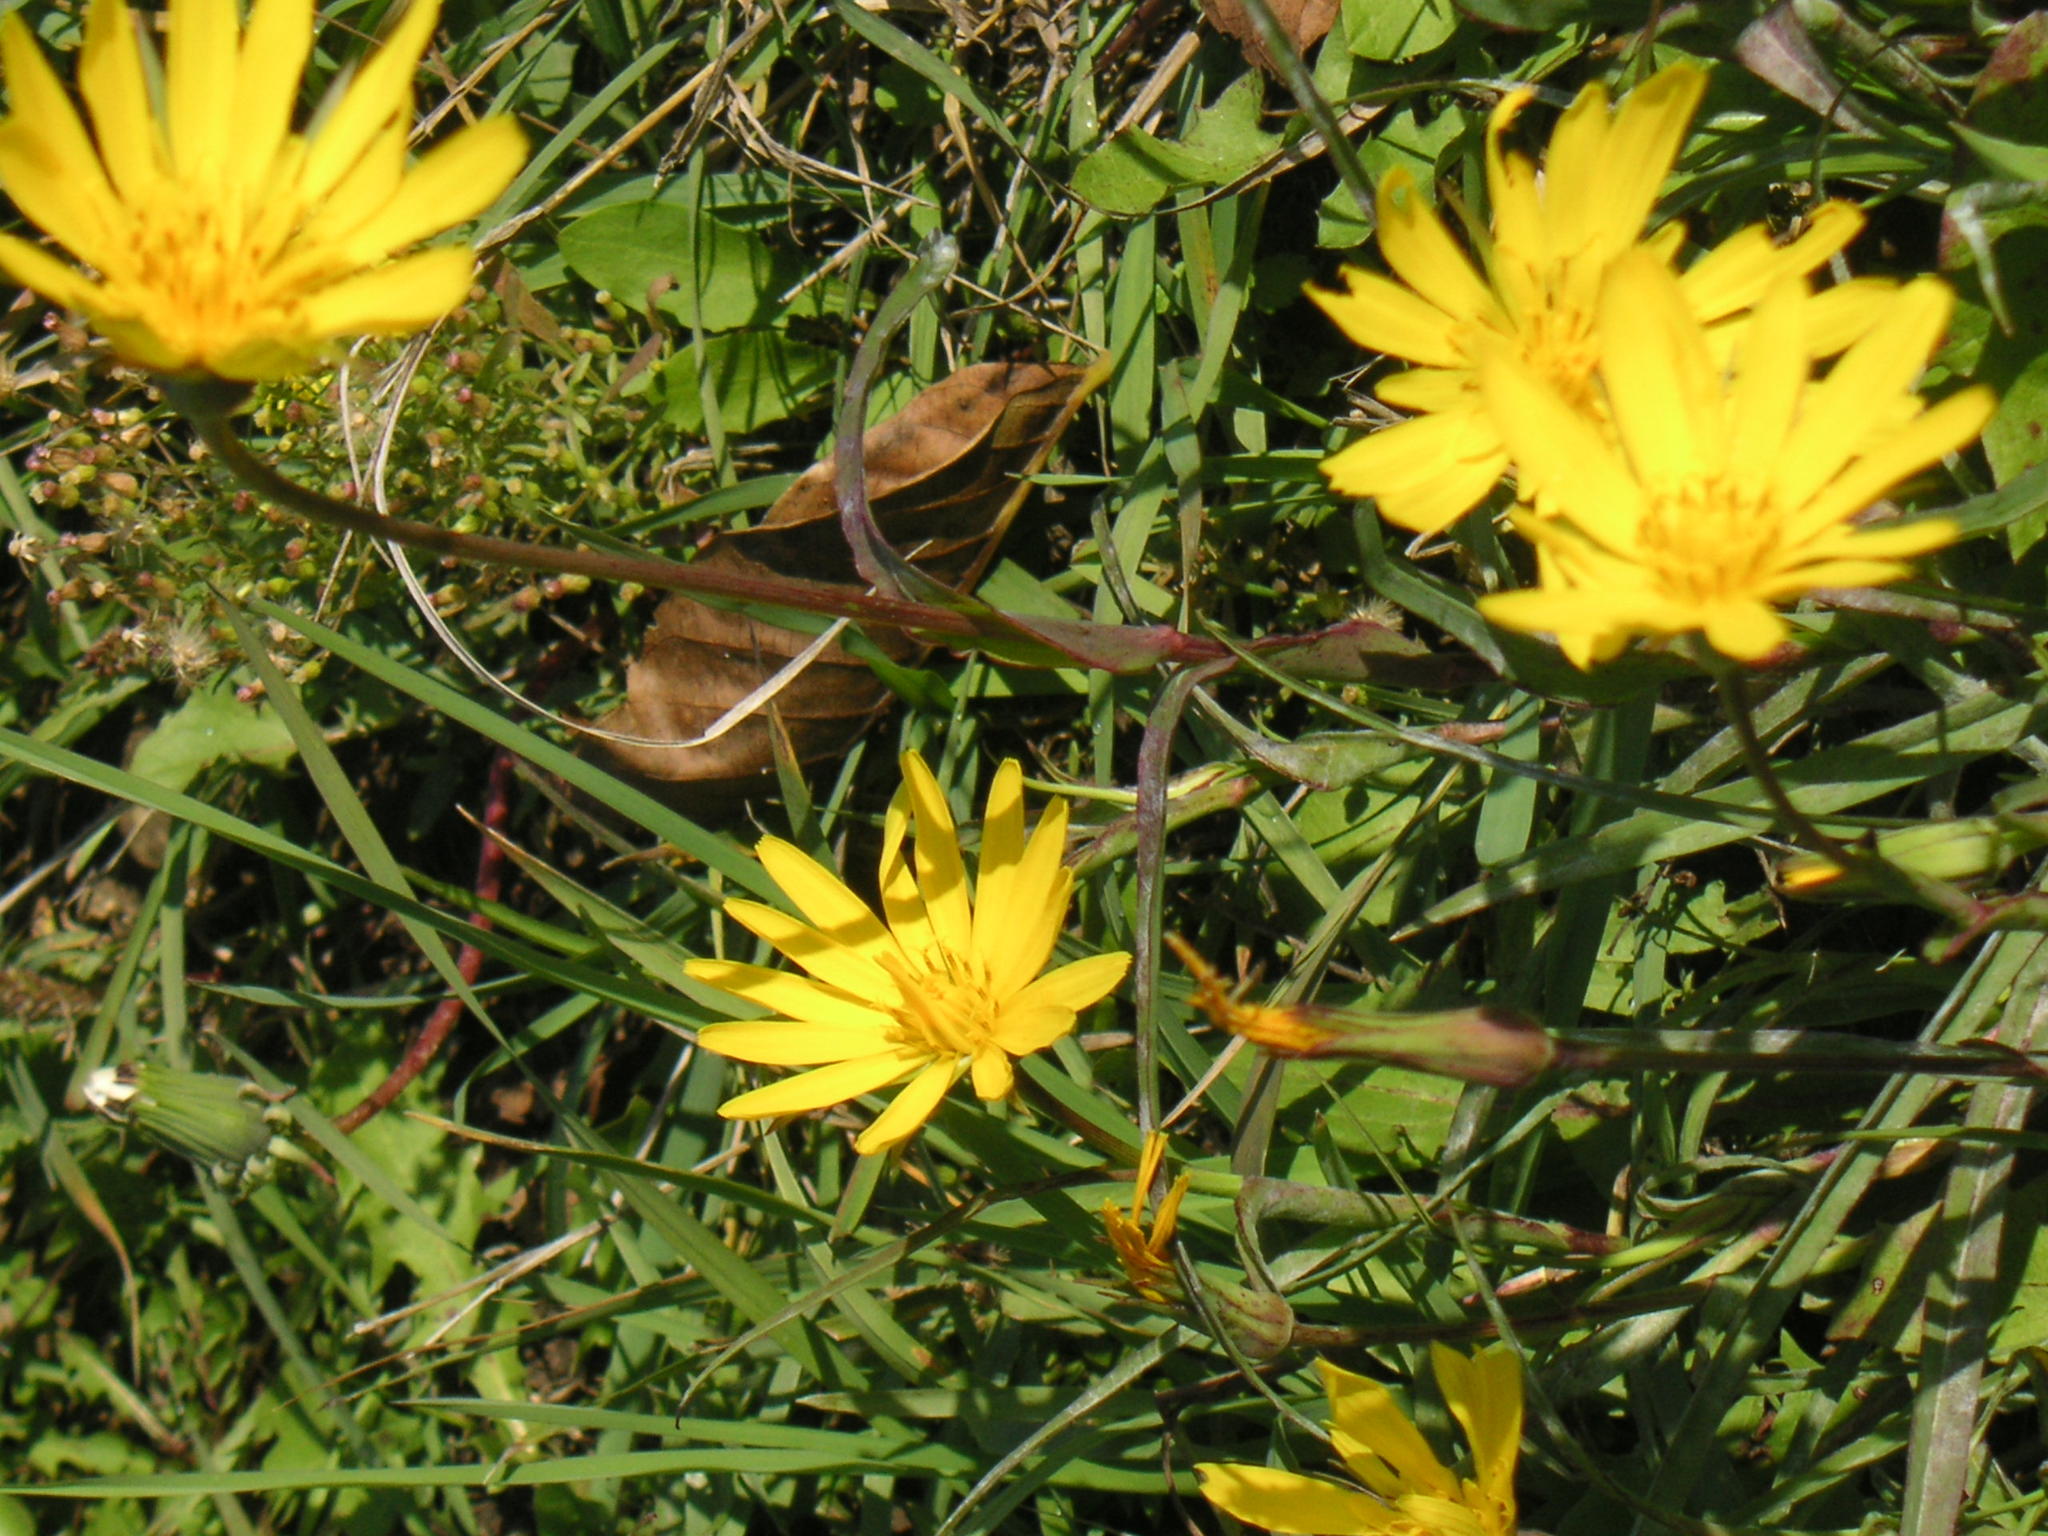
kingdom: Plantae
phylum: Tracheophyta
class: Magnoliopsida
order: Asterales
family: Asteraceae
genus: Tragopogon
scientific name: Tragopogon orientalis
